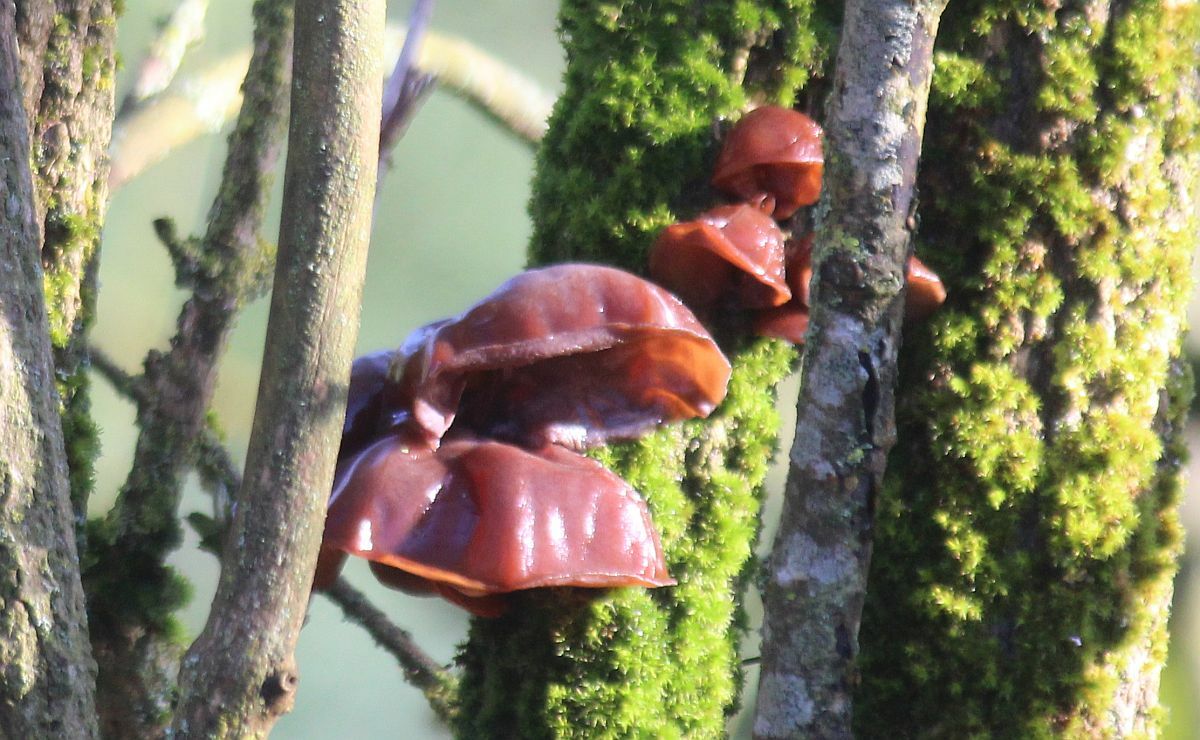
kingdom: Fungi
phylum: Basidiomycota
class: Agaricomycetes
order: Auriculariales
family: Auriculariaceae
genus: Auricularia
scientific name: Auricularia auricula-judae
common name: Jelly ear
